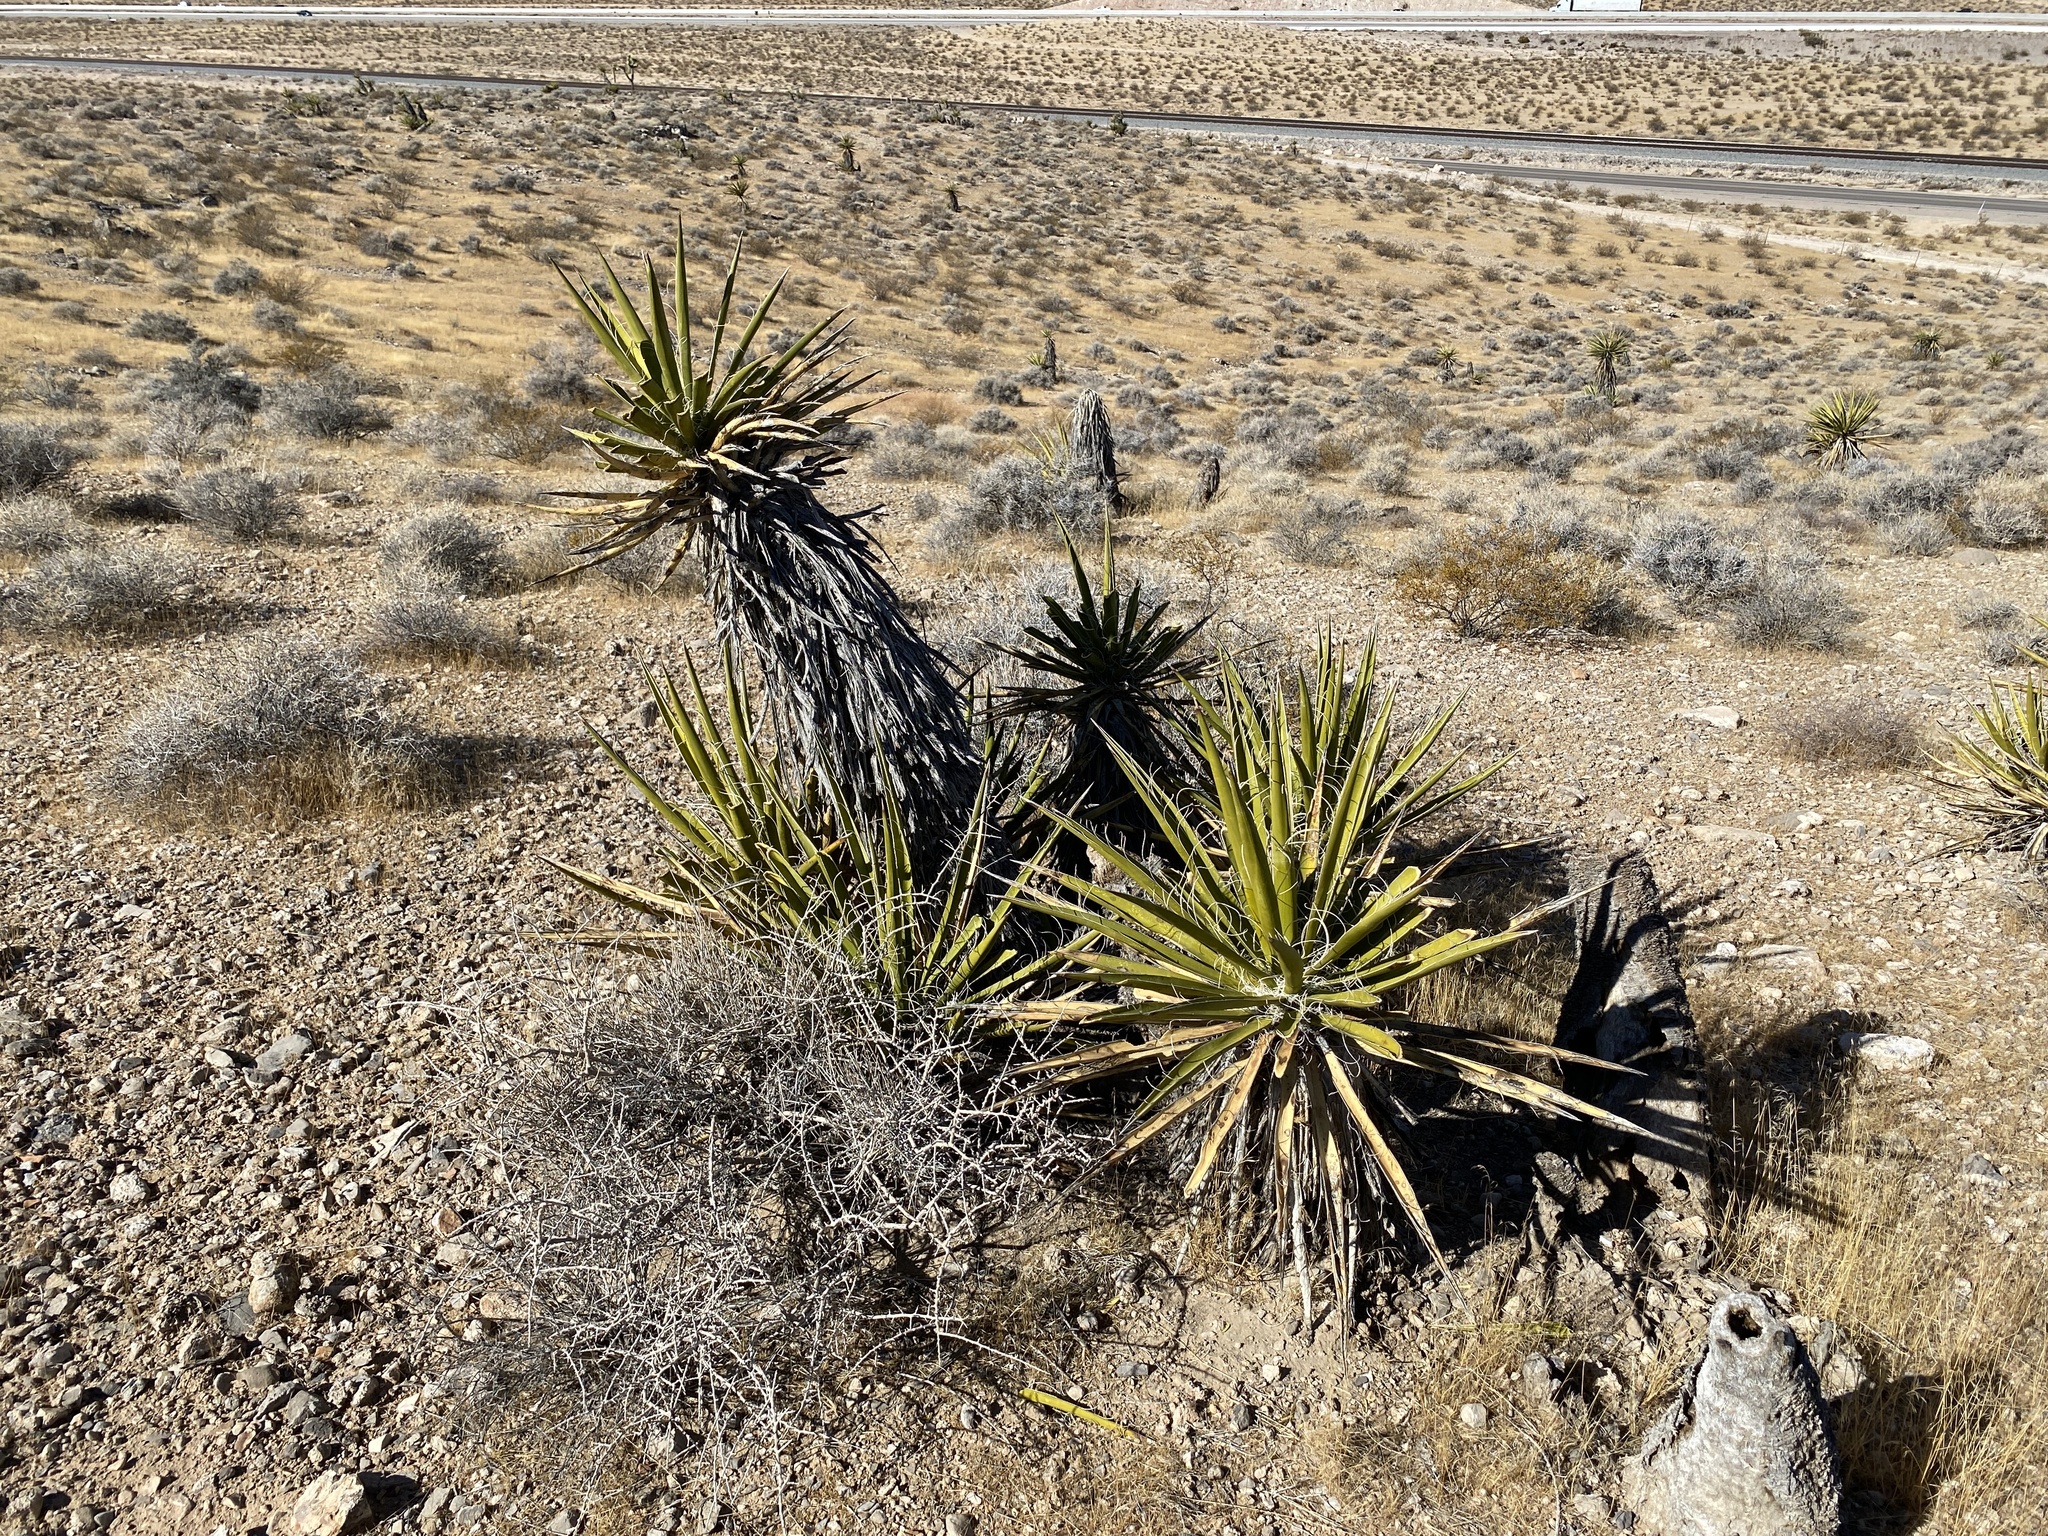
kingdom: Plantae
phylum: Tracheophyta
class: Liliopsida
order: Asparagales
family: Asparagaceae
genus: Yucca
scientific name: Yucca schidigera
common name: Mojave yucca
